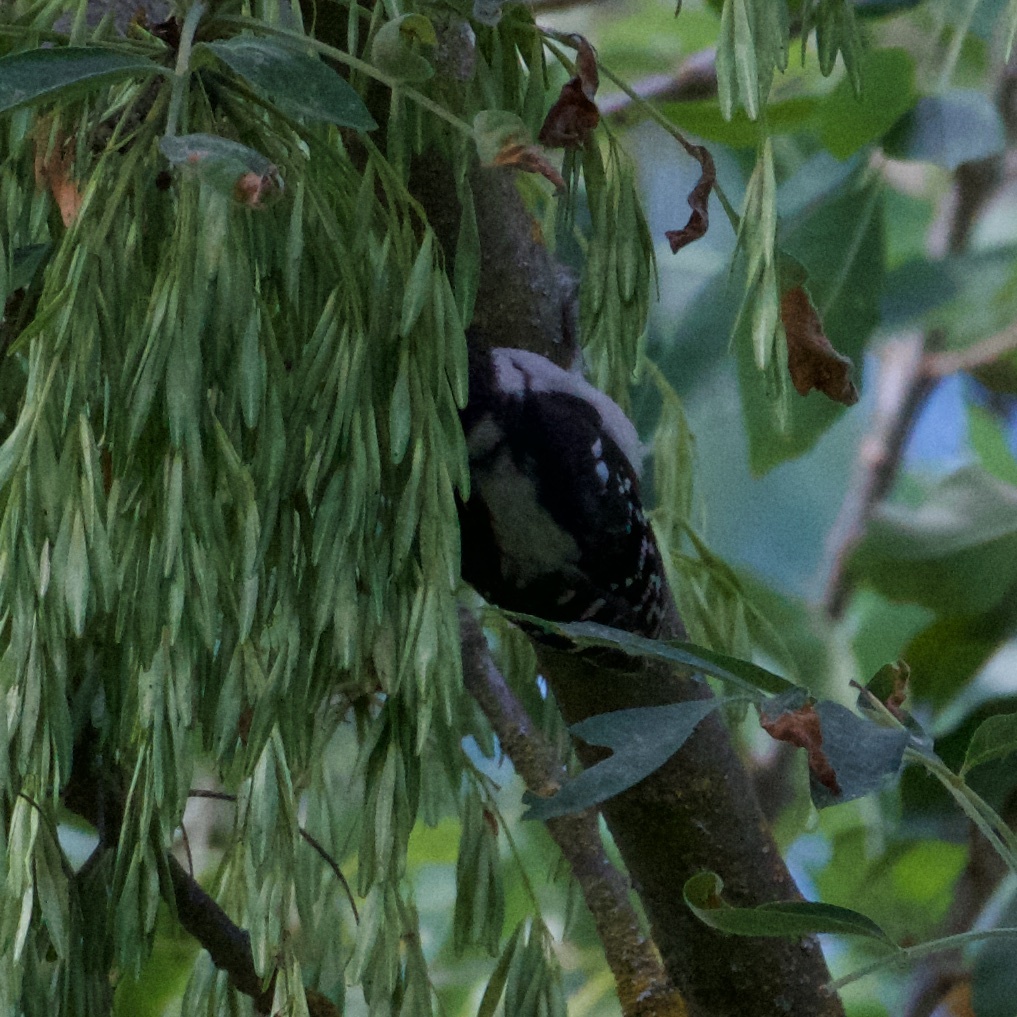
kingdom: Animalia
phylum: Chordata
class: Aves
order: Piciformes
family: Picidae
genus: Dryobates
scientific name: Dryobates pubescens
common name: Downy woodpecker
